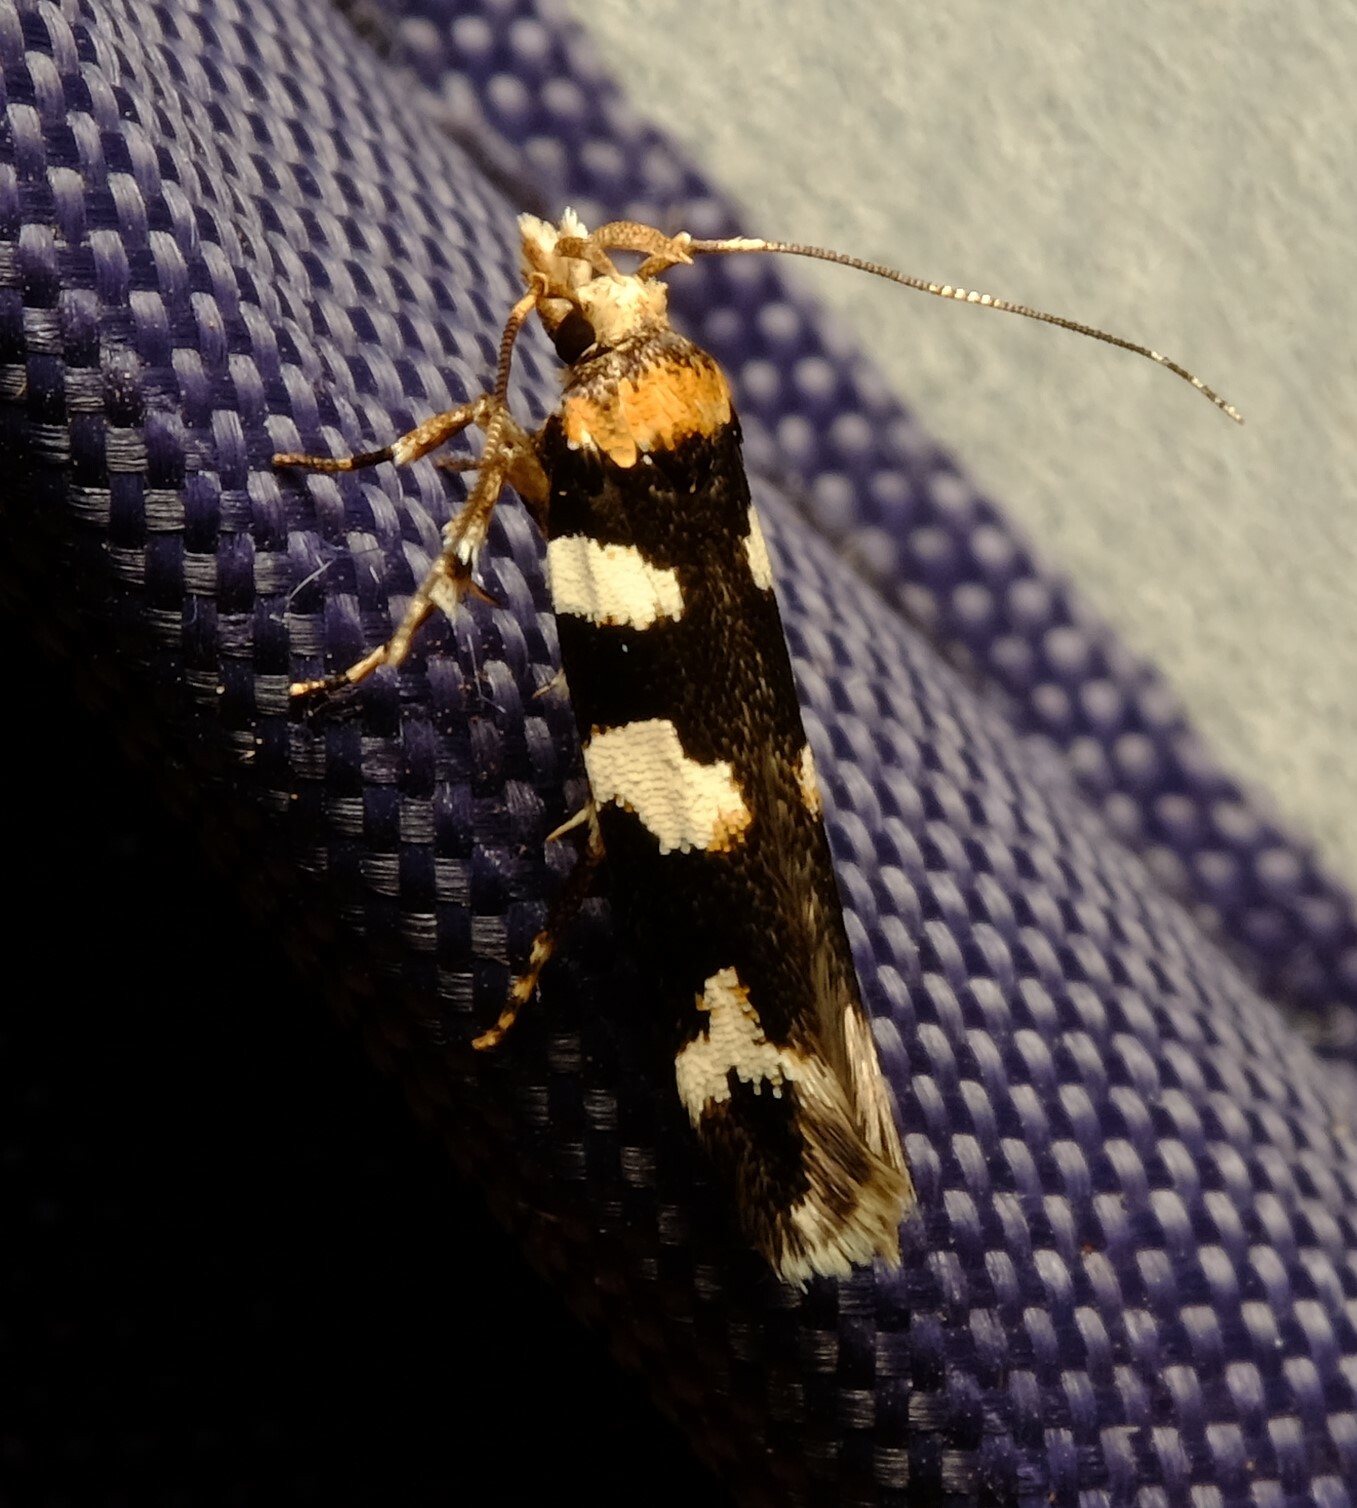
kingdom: Animalia
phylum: Arthropoda
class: Insecta
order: Lepidoptera
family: Cosmopterigidae
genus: Limnaecia
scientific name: Limnaecia camptosema
